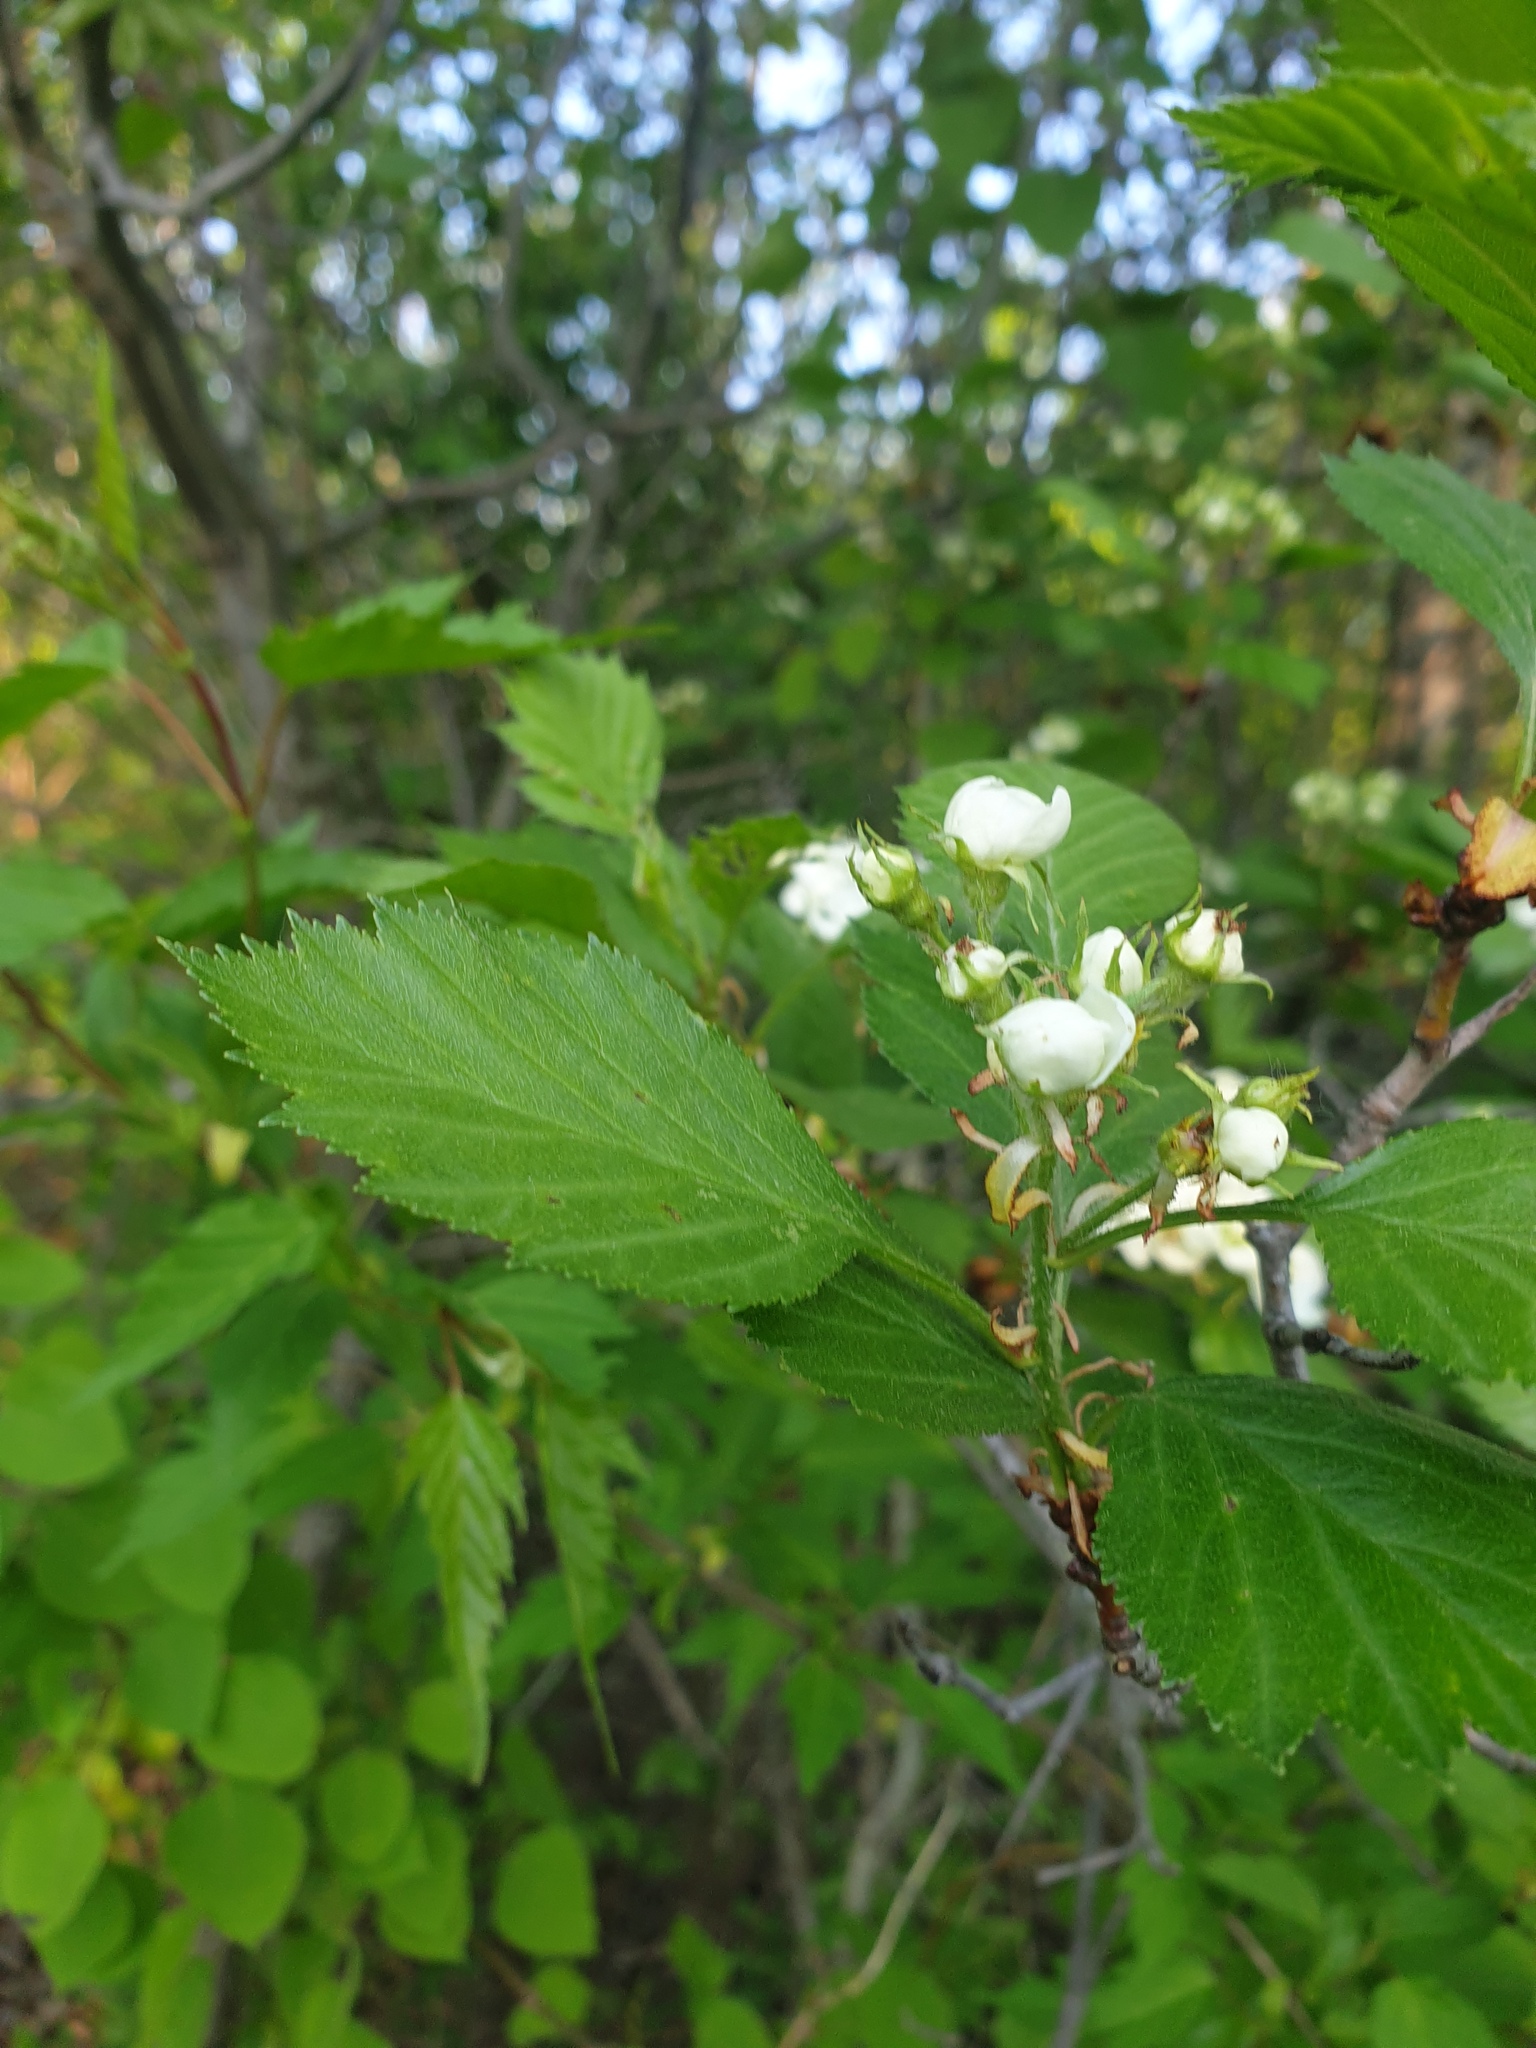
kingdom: Plantae
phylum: Tracheophyta
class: Magnoliopsida
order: Rosales
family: Rosaceae
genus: Crataegus
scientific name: Crataegus chrysocarpa
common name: Fire-berry hawthorn
